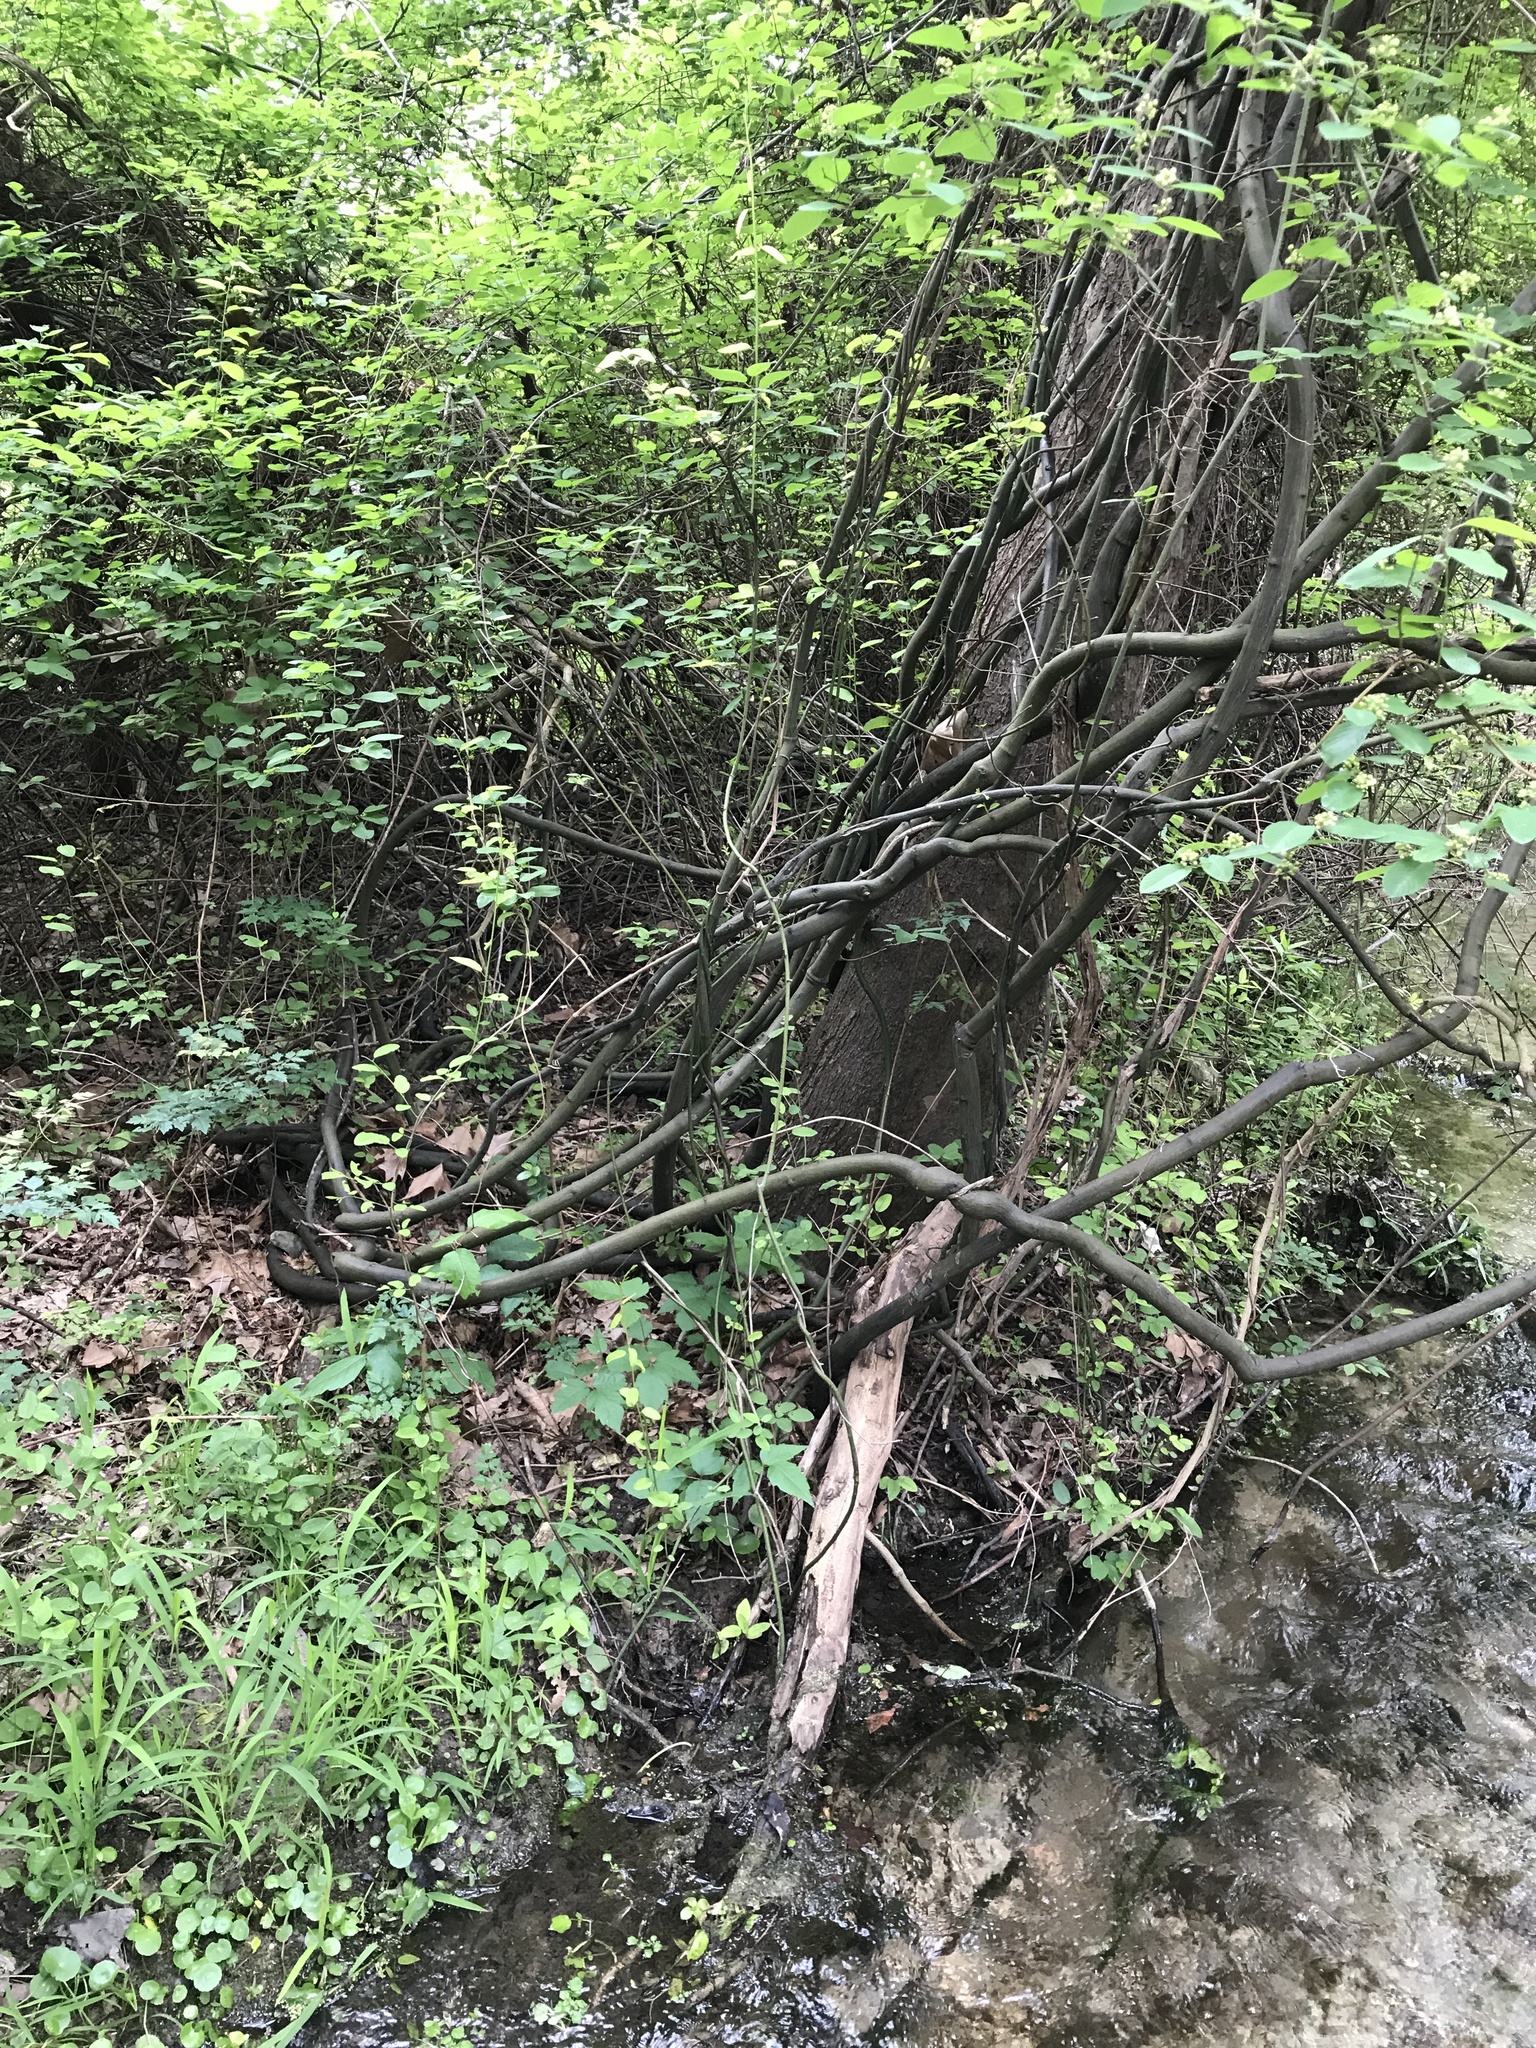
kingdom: Plantae
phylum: Tracheophyta
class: Magnoliopsida
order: Rosales
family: Rhamnaceae
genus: Berchemia
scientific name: Berchemia scandens
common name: Supplejack
